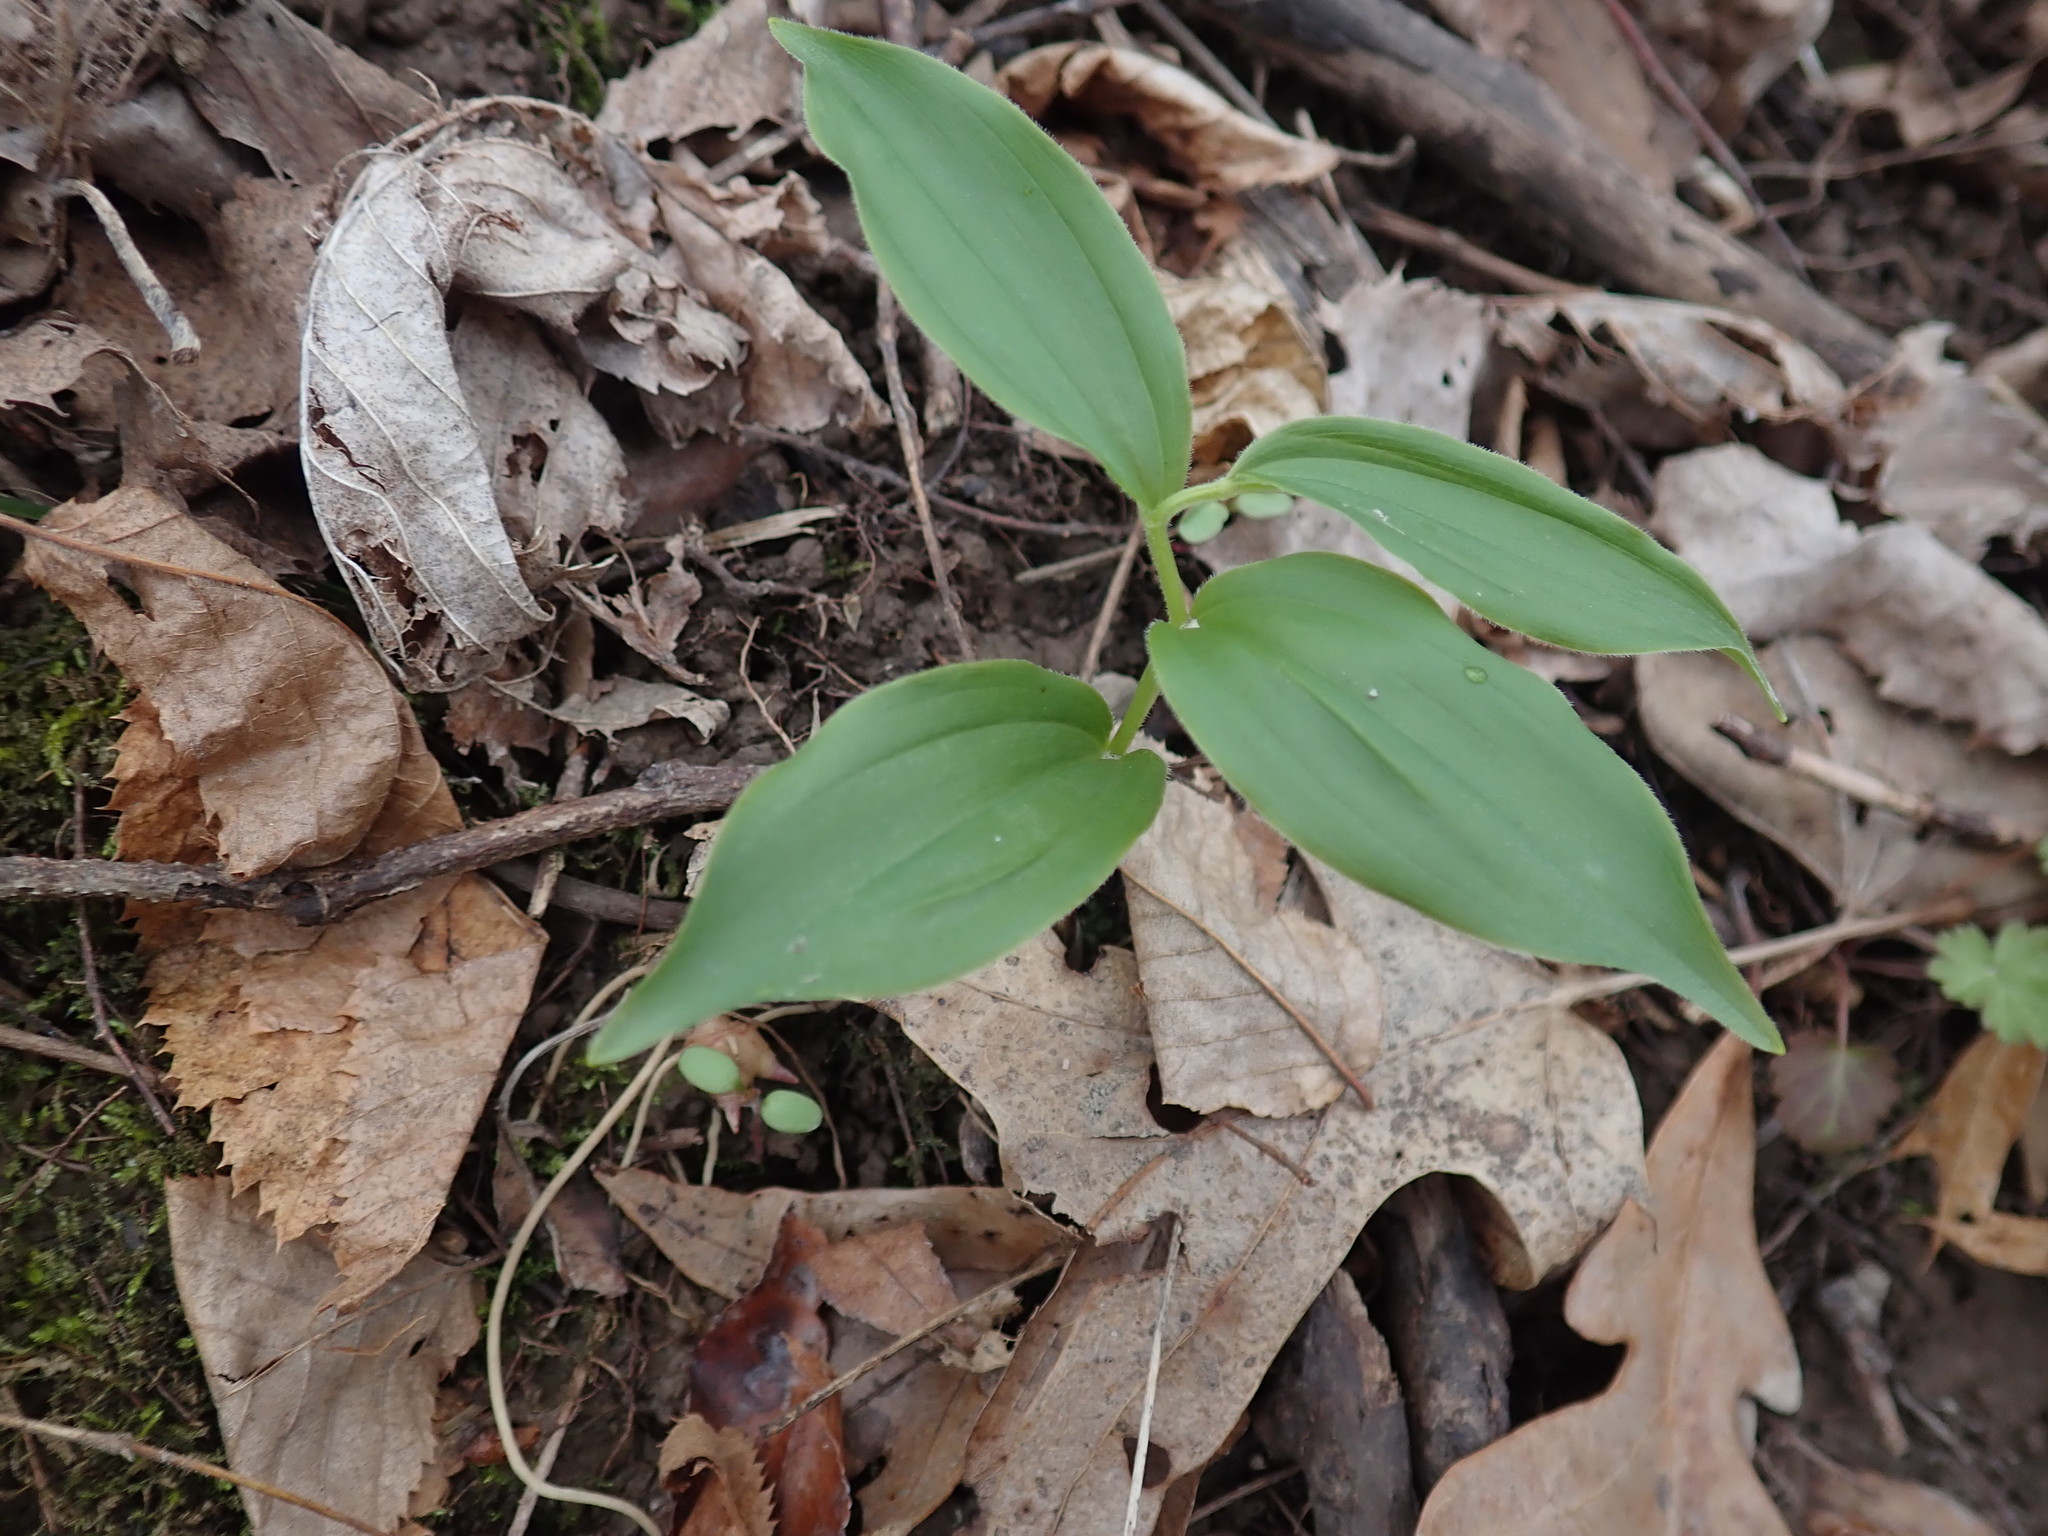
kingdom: Plantae
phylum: Tracheophyta
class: Liliopsida
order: Asparagales
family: Asparagaceae
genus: Maianthemum
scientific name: Maianthemum racemosum
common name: False spikenard
